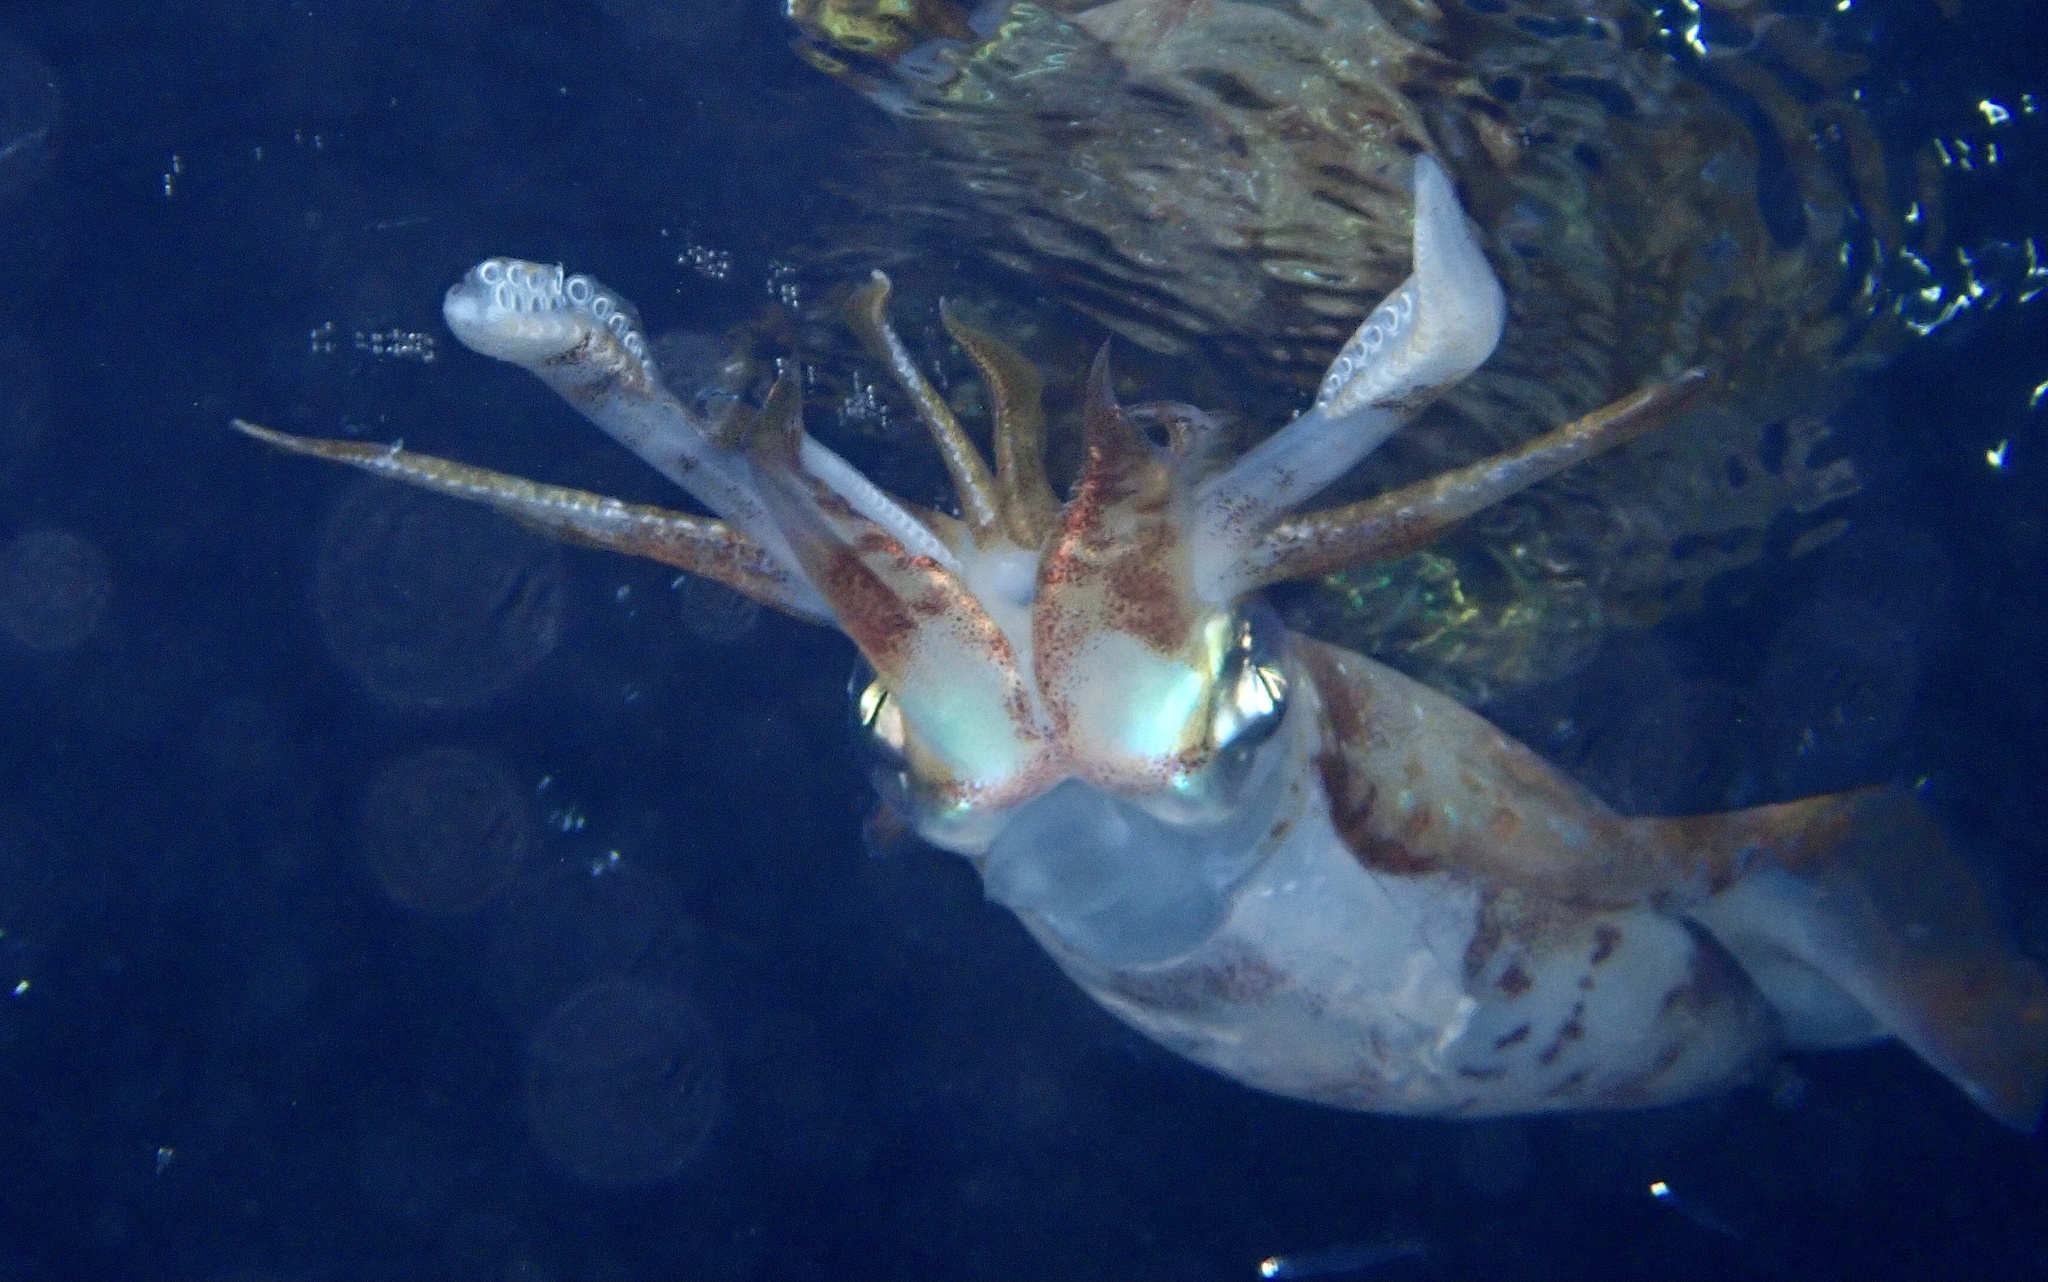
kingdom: Animalia
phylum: Mollusca
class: Cephalopoda
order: Myopsida
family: Loliginidae
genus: Sepioteuthis
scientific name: Sepioteuthis lessoniana
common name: Bigfin reef squid
